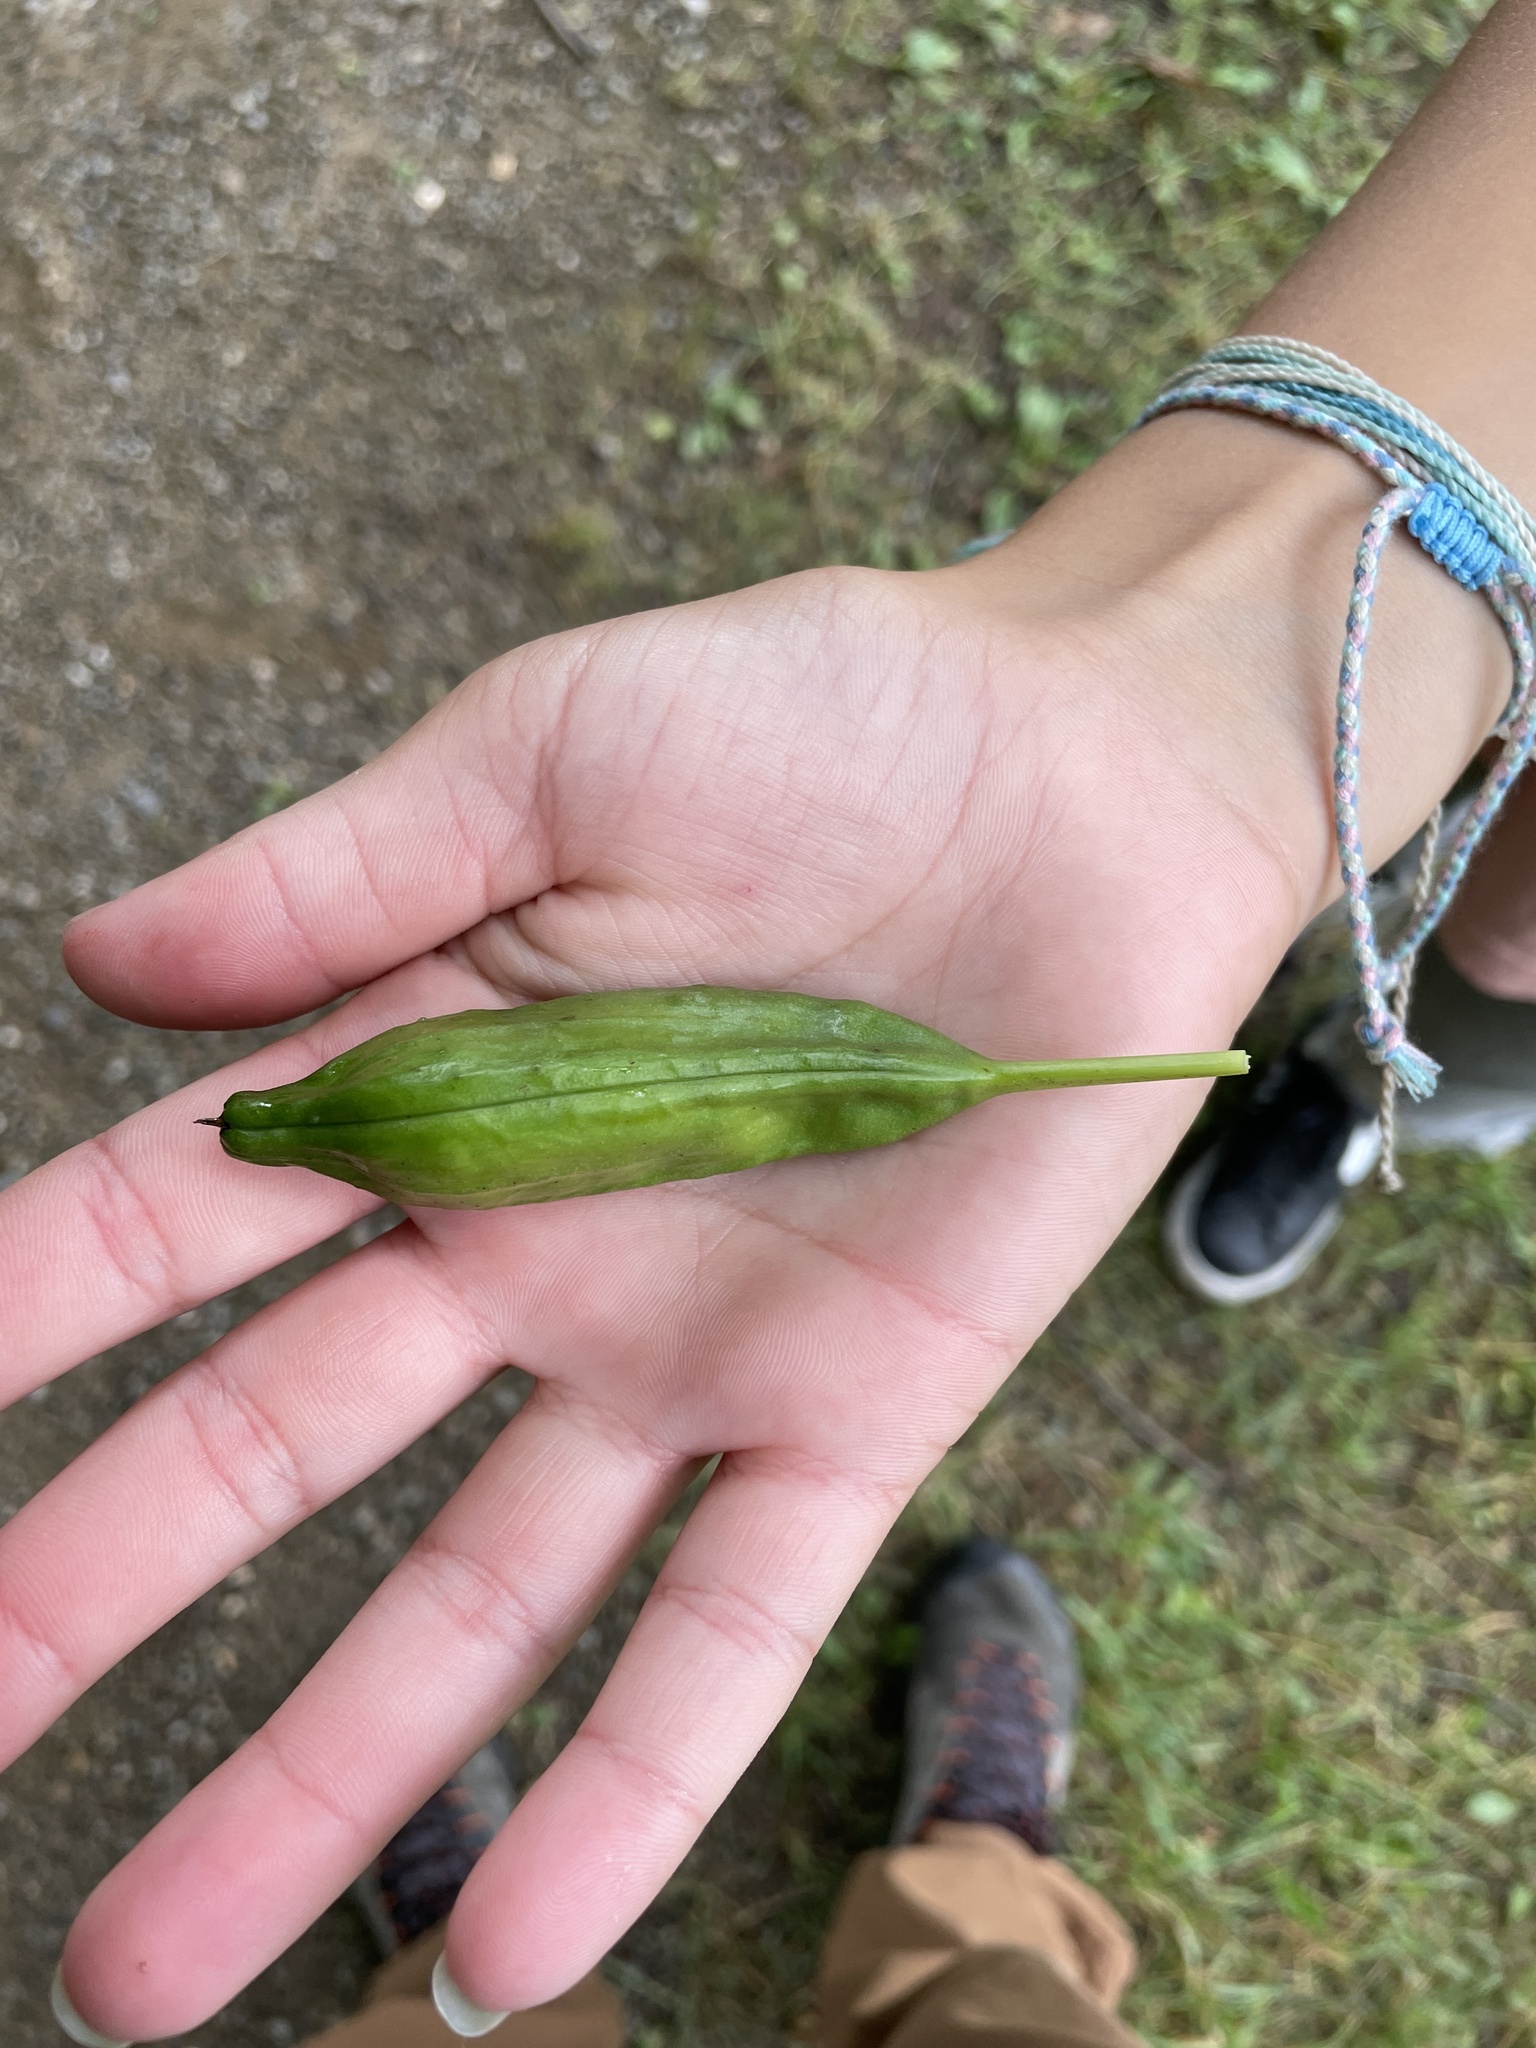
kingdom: Plantae
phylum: Tracheophyta
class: Liliopsida
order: Asparagales
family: Iridaceae
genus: Iris
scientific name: Iris pseudacorus
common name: Yellow flag
